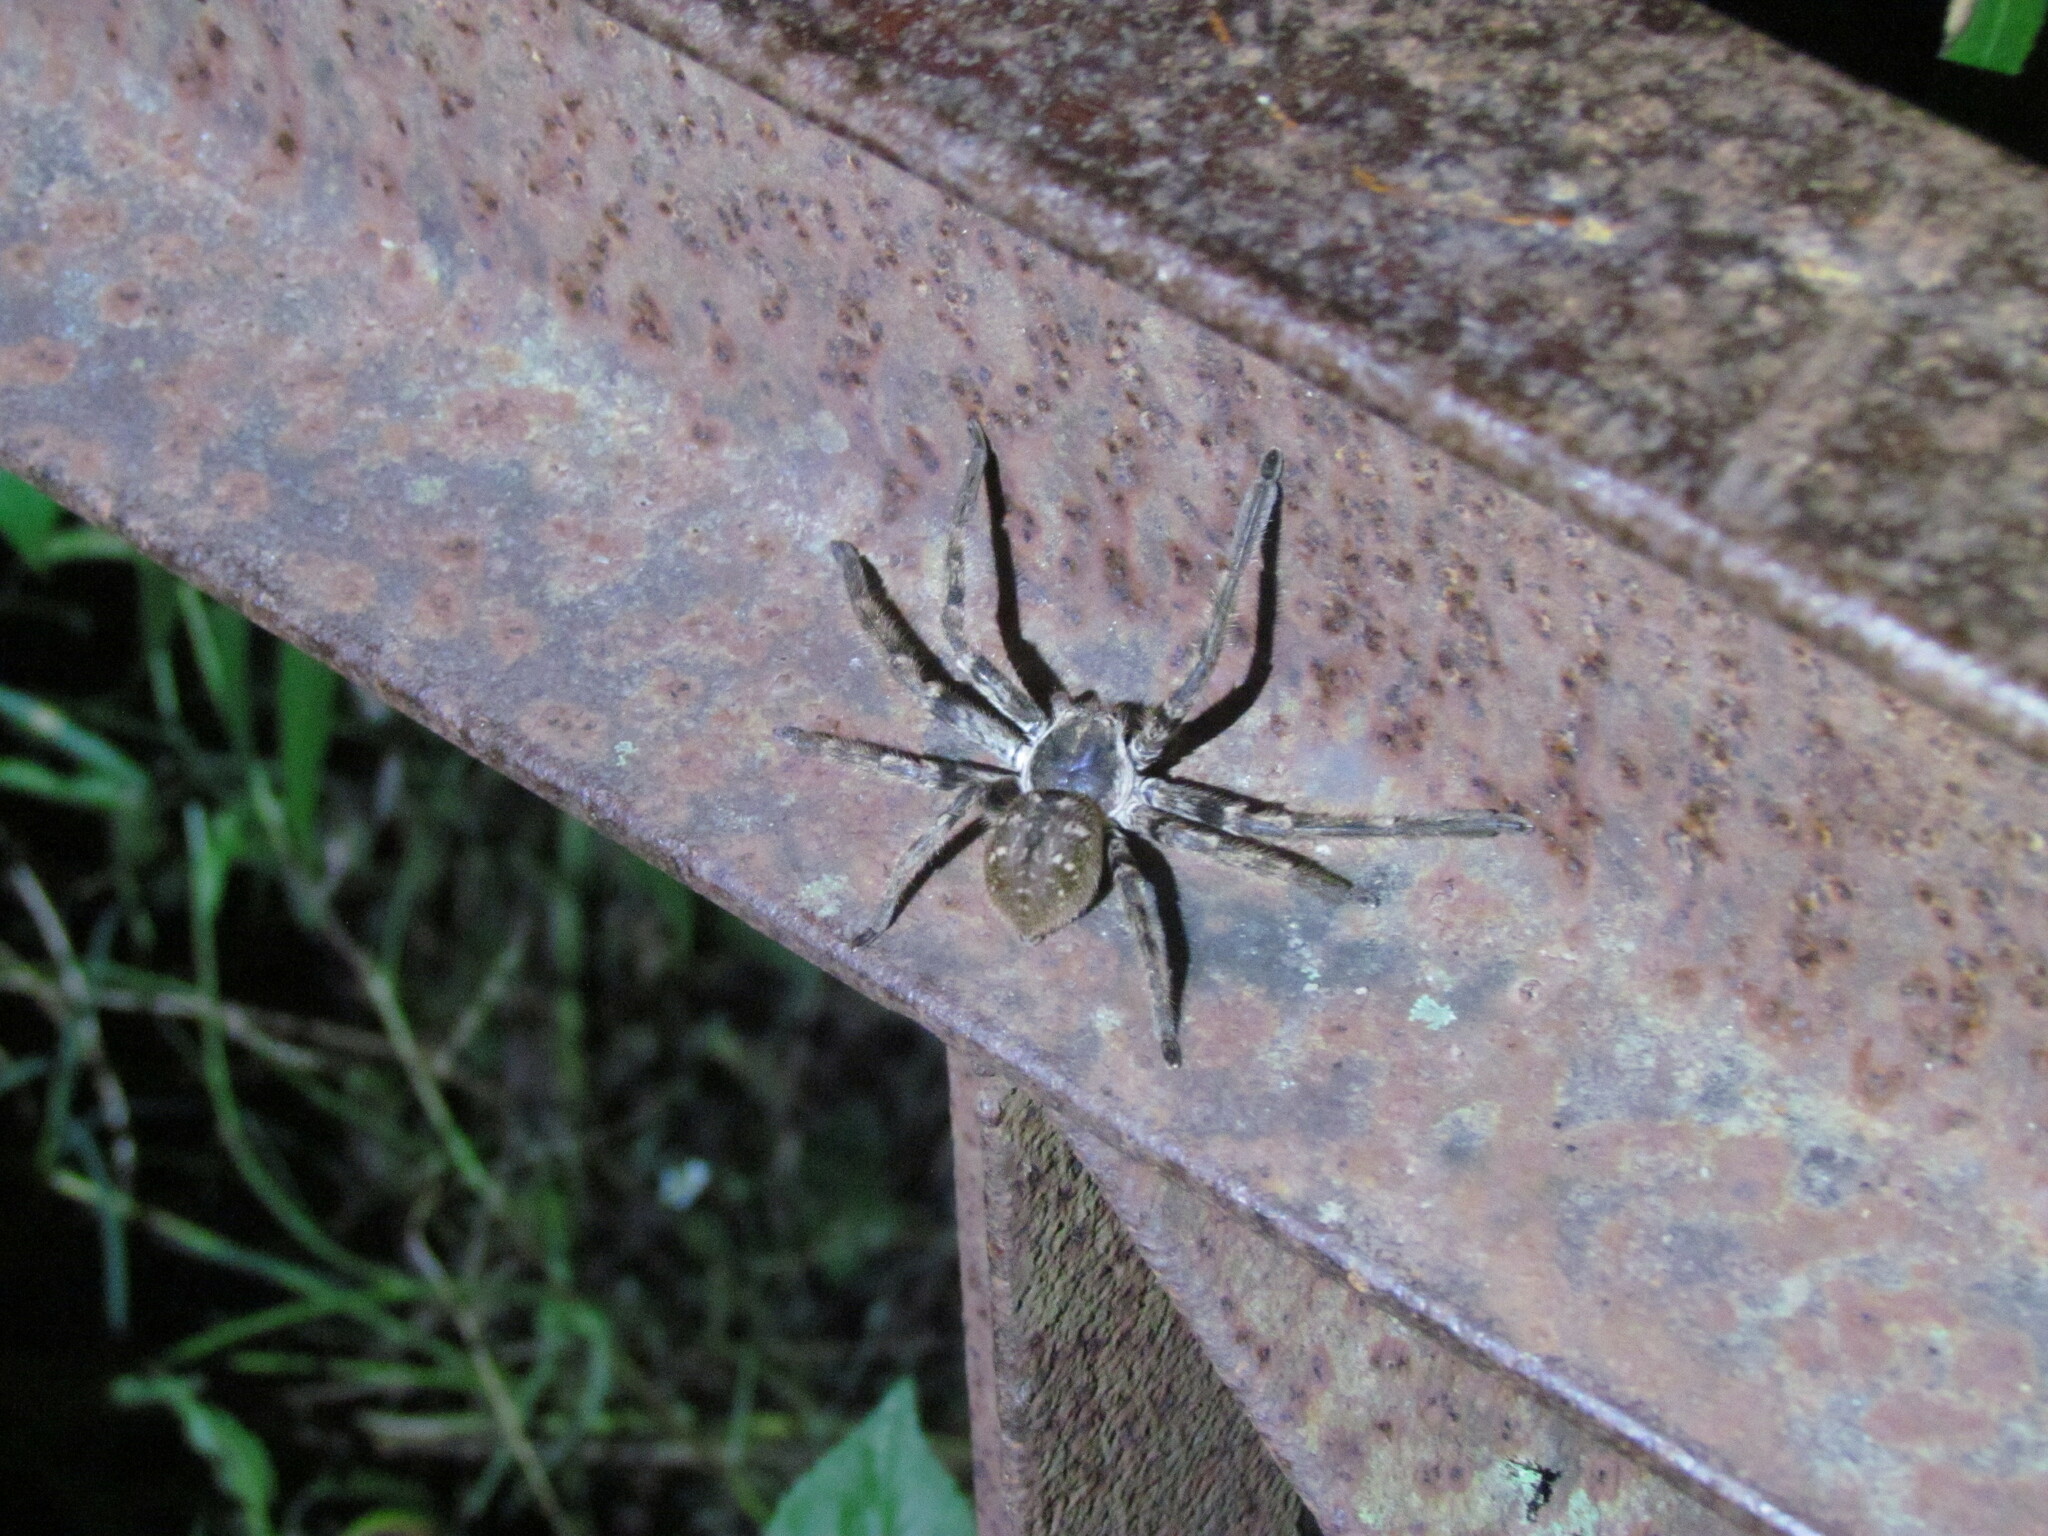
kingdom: Animalia
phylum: Arthropoda
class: Arachnida
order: Araneae
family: Sparassidae
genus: Polybetes
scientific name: Polybetes pythagoricus
